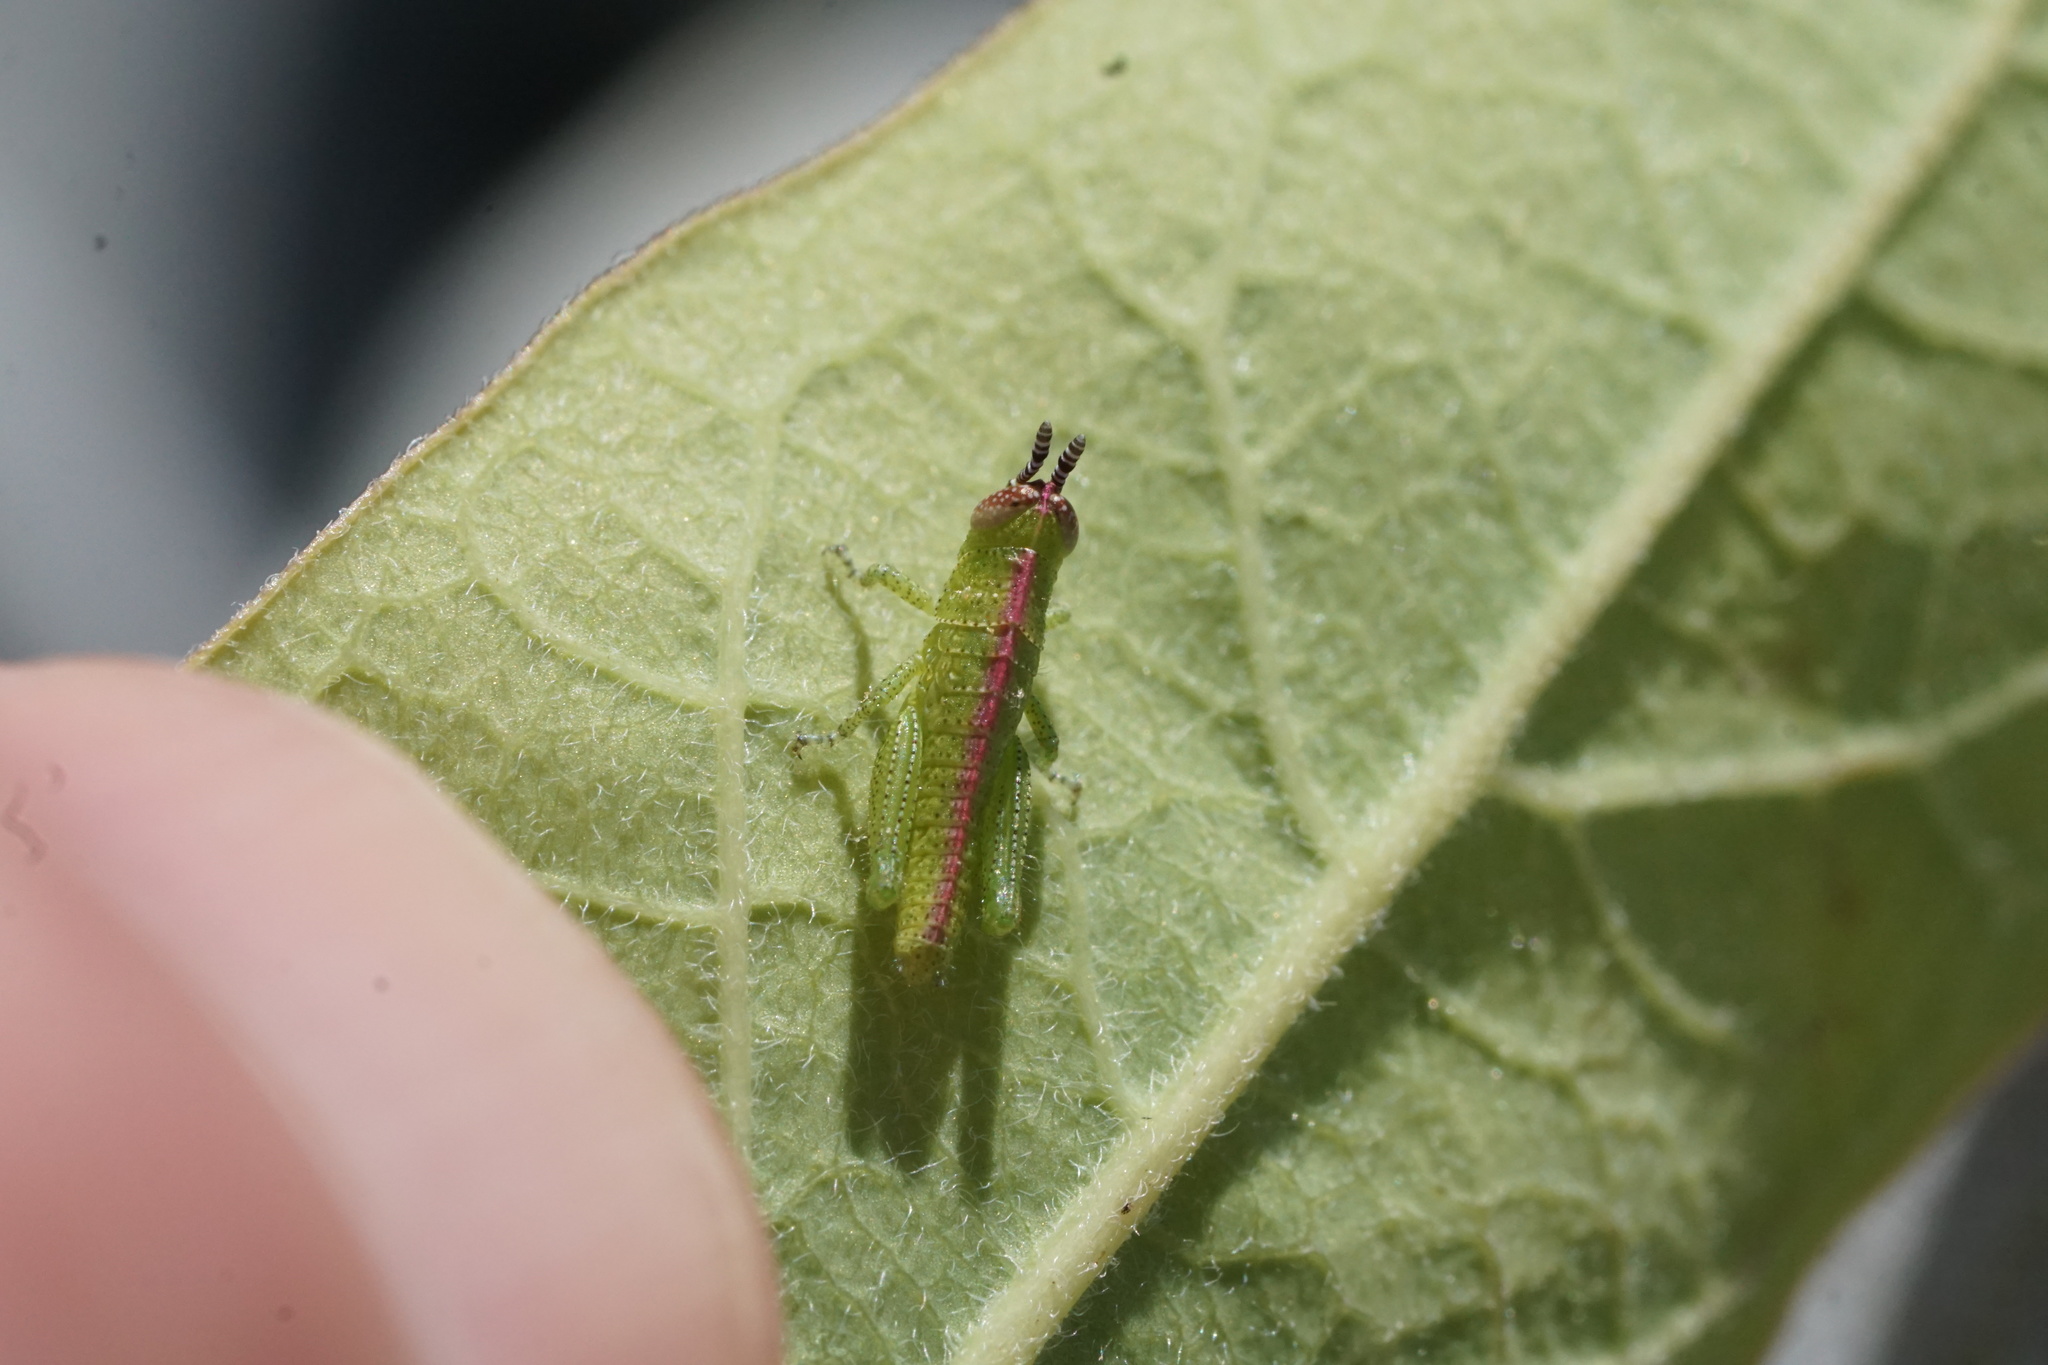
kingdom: Animalia
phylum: Arthropoda
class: Insecta
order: Orthoptera
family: Acrididae
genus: Hesperotettix
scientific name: Hesperotettix viridis
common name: Meadow purple-striped grasshopper
